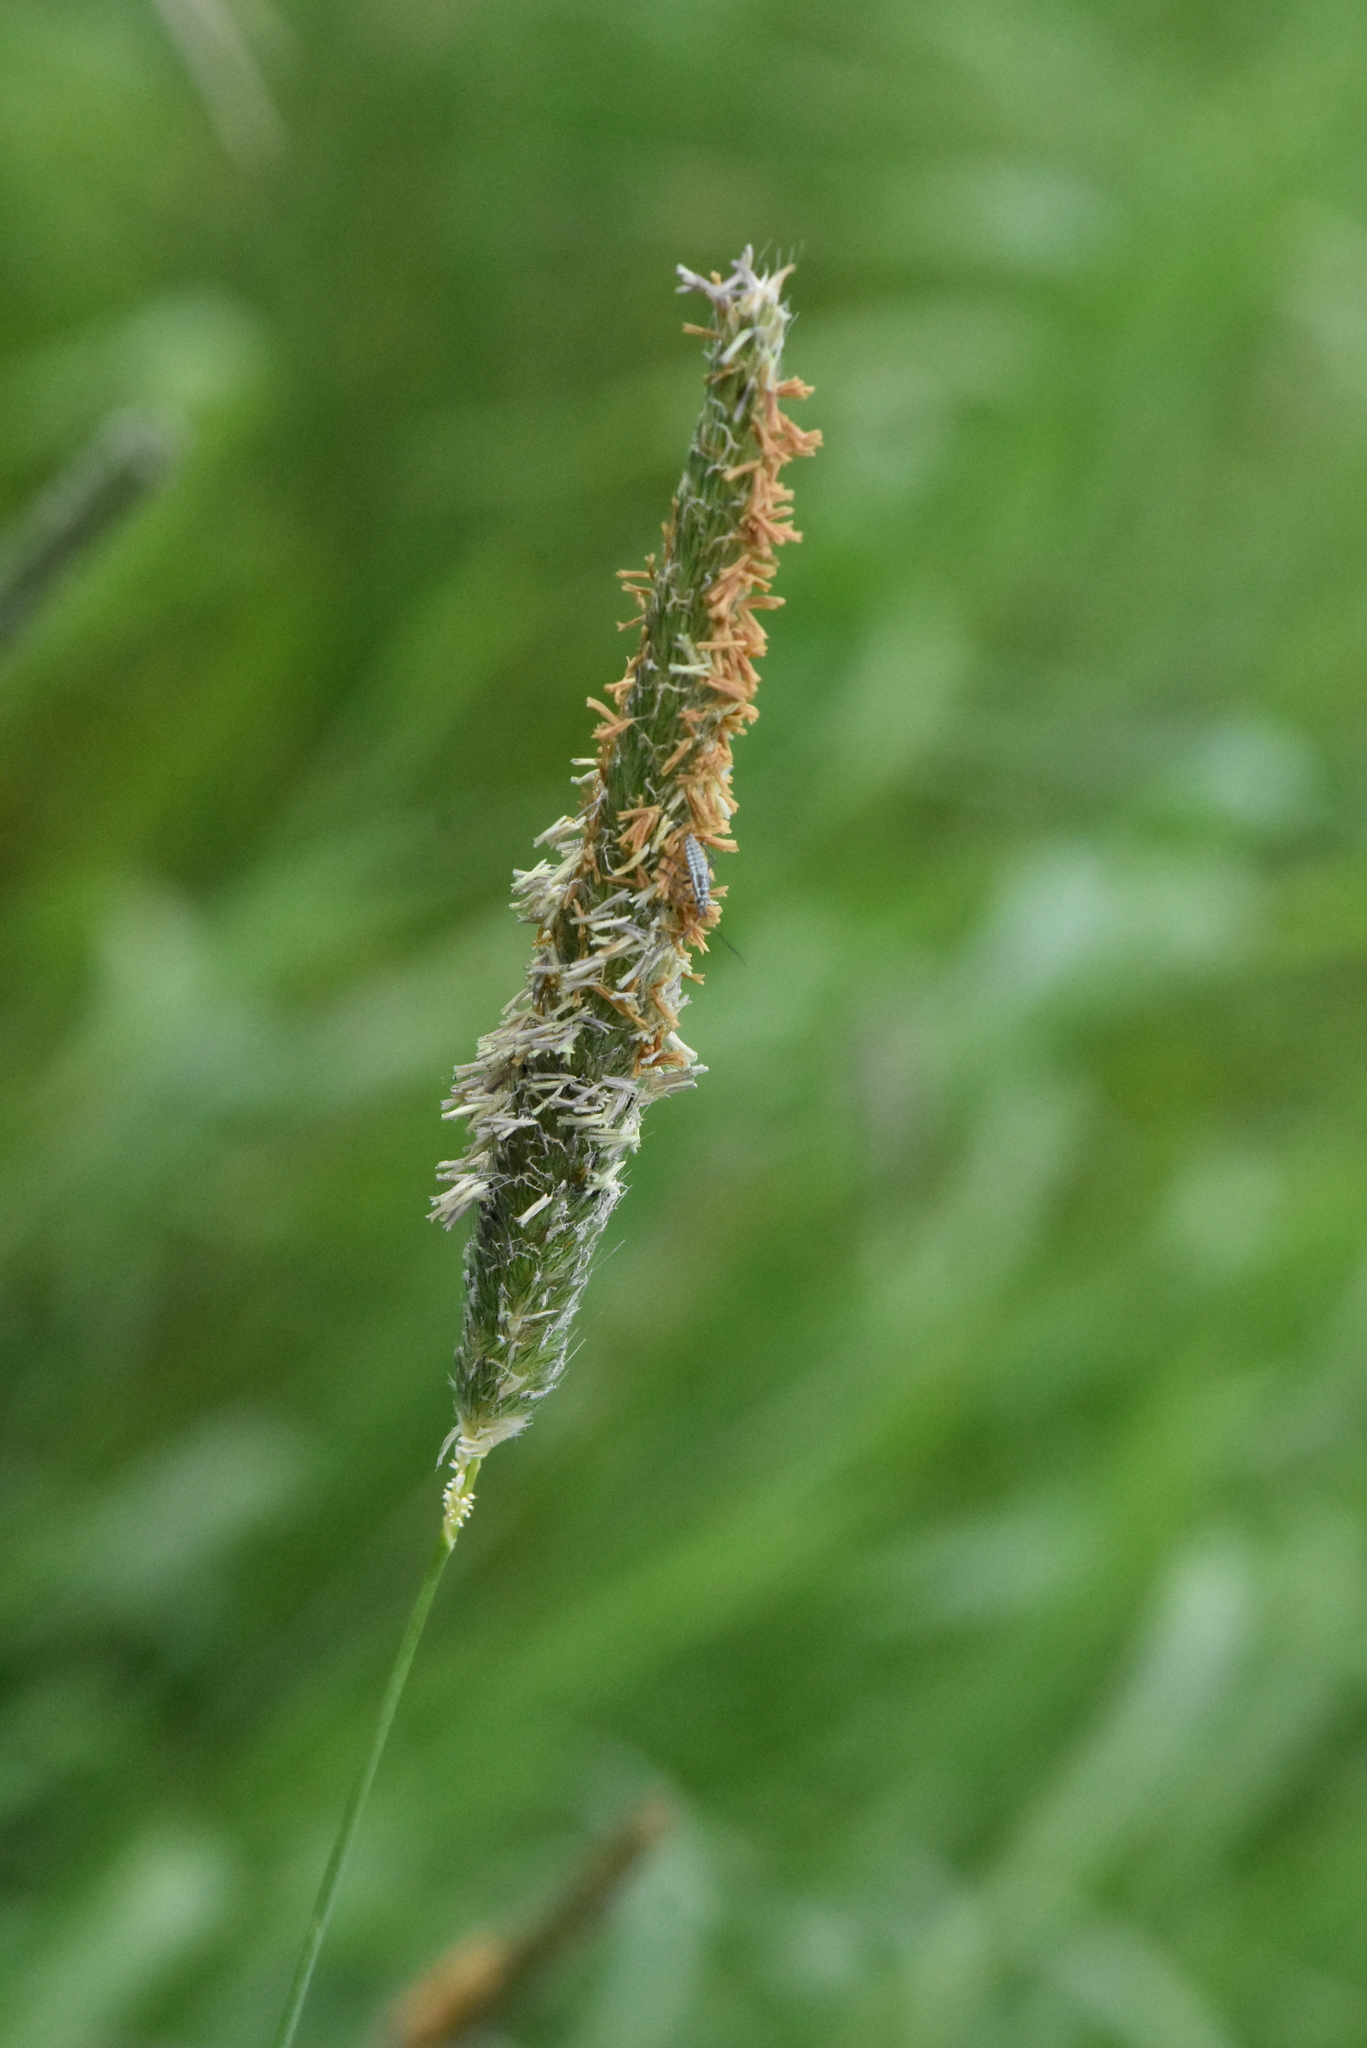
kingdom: Plantae
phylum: Tracheophyta
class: Liliopsida
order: Poales
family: Poaceae
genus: Alopecurus
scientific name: Alopecurus pratensis
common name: Meadow foxtail
